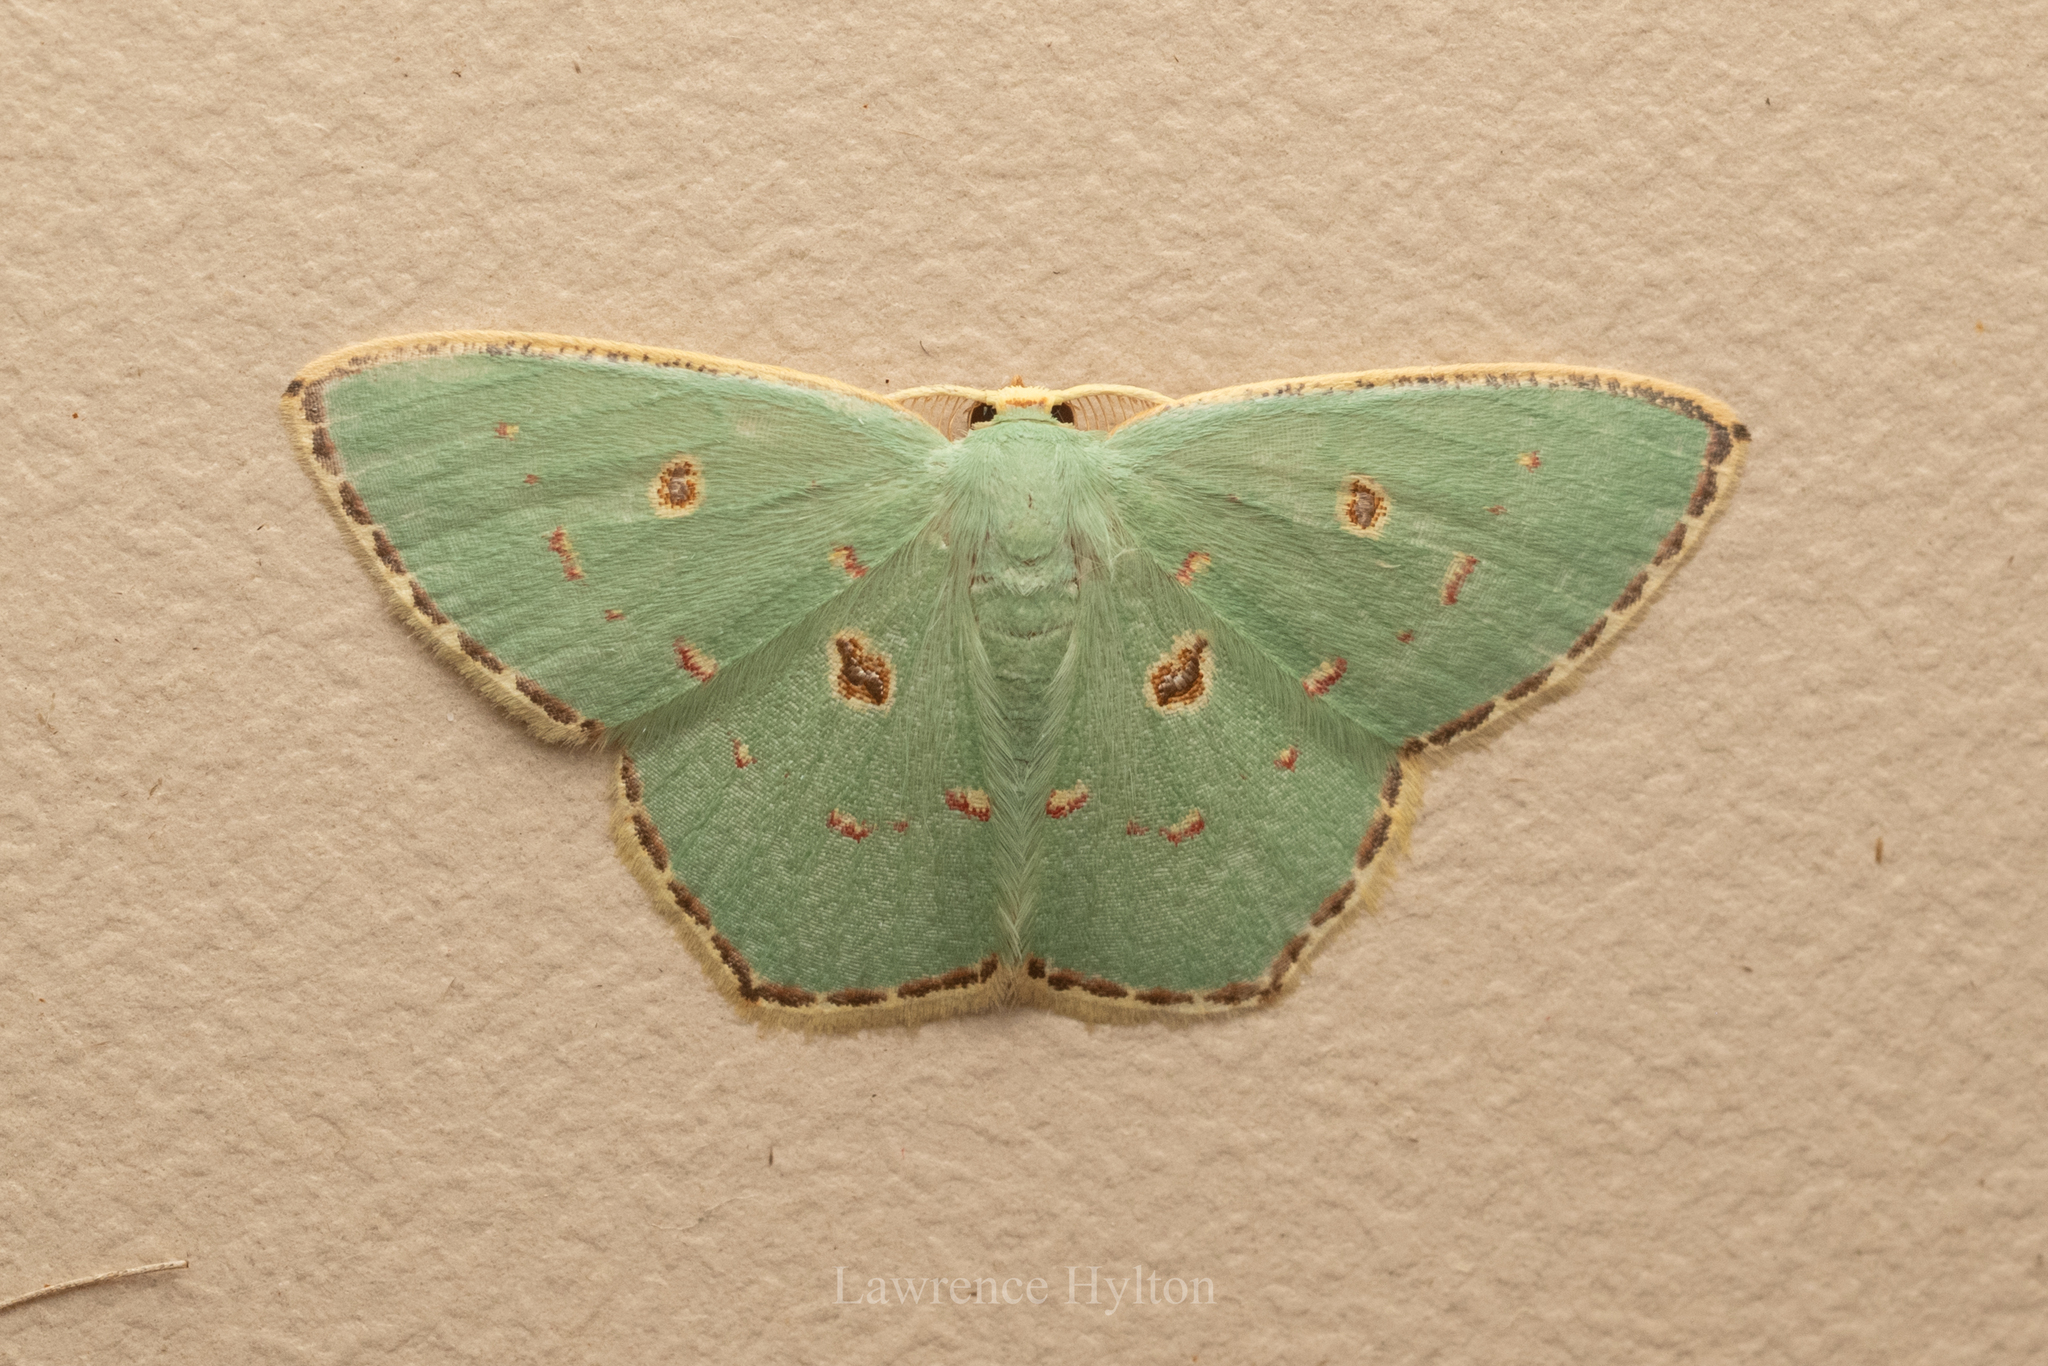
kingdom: Animalia
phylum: Arthropoda
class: Insecta
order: Lepidoptera
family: Geometridae
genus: Comostola
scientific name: Comostola meritaria
